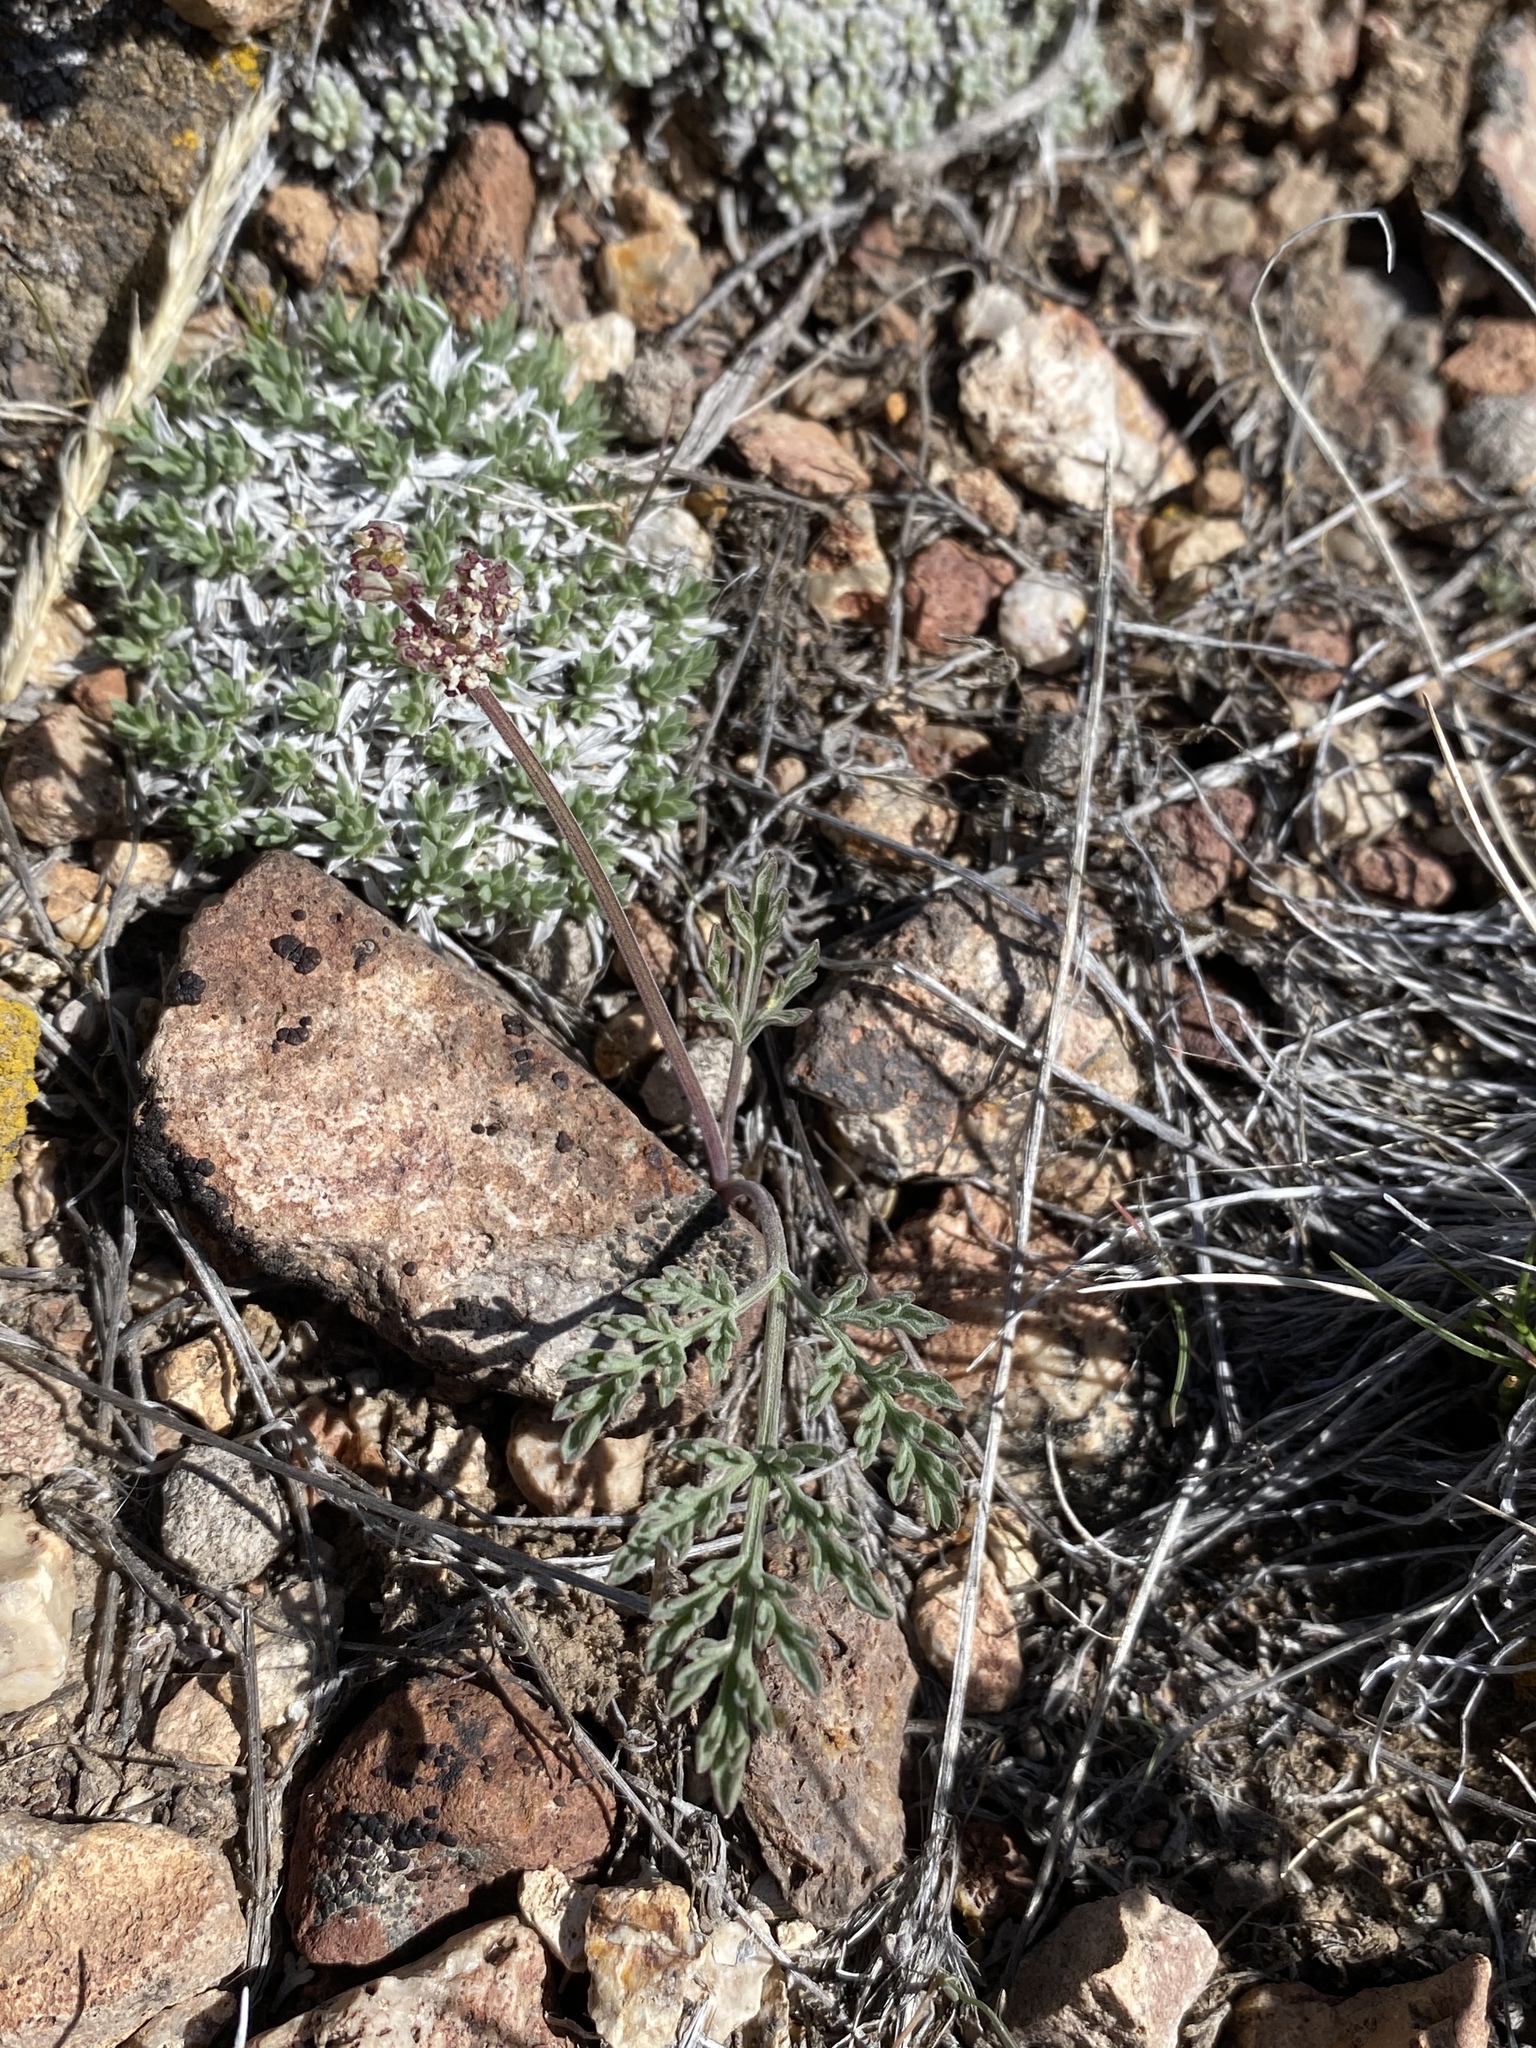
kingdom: Plantae
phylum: Tracheophyta
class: Magnoliopsida
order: Apiales
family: Apiaceae
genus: Lomatium
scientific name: Lomatium nevadense
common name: Nevada lomatium
